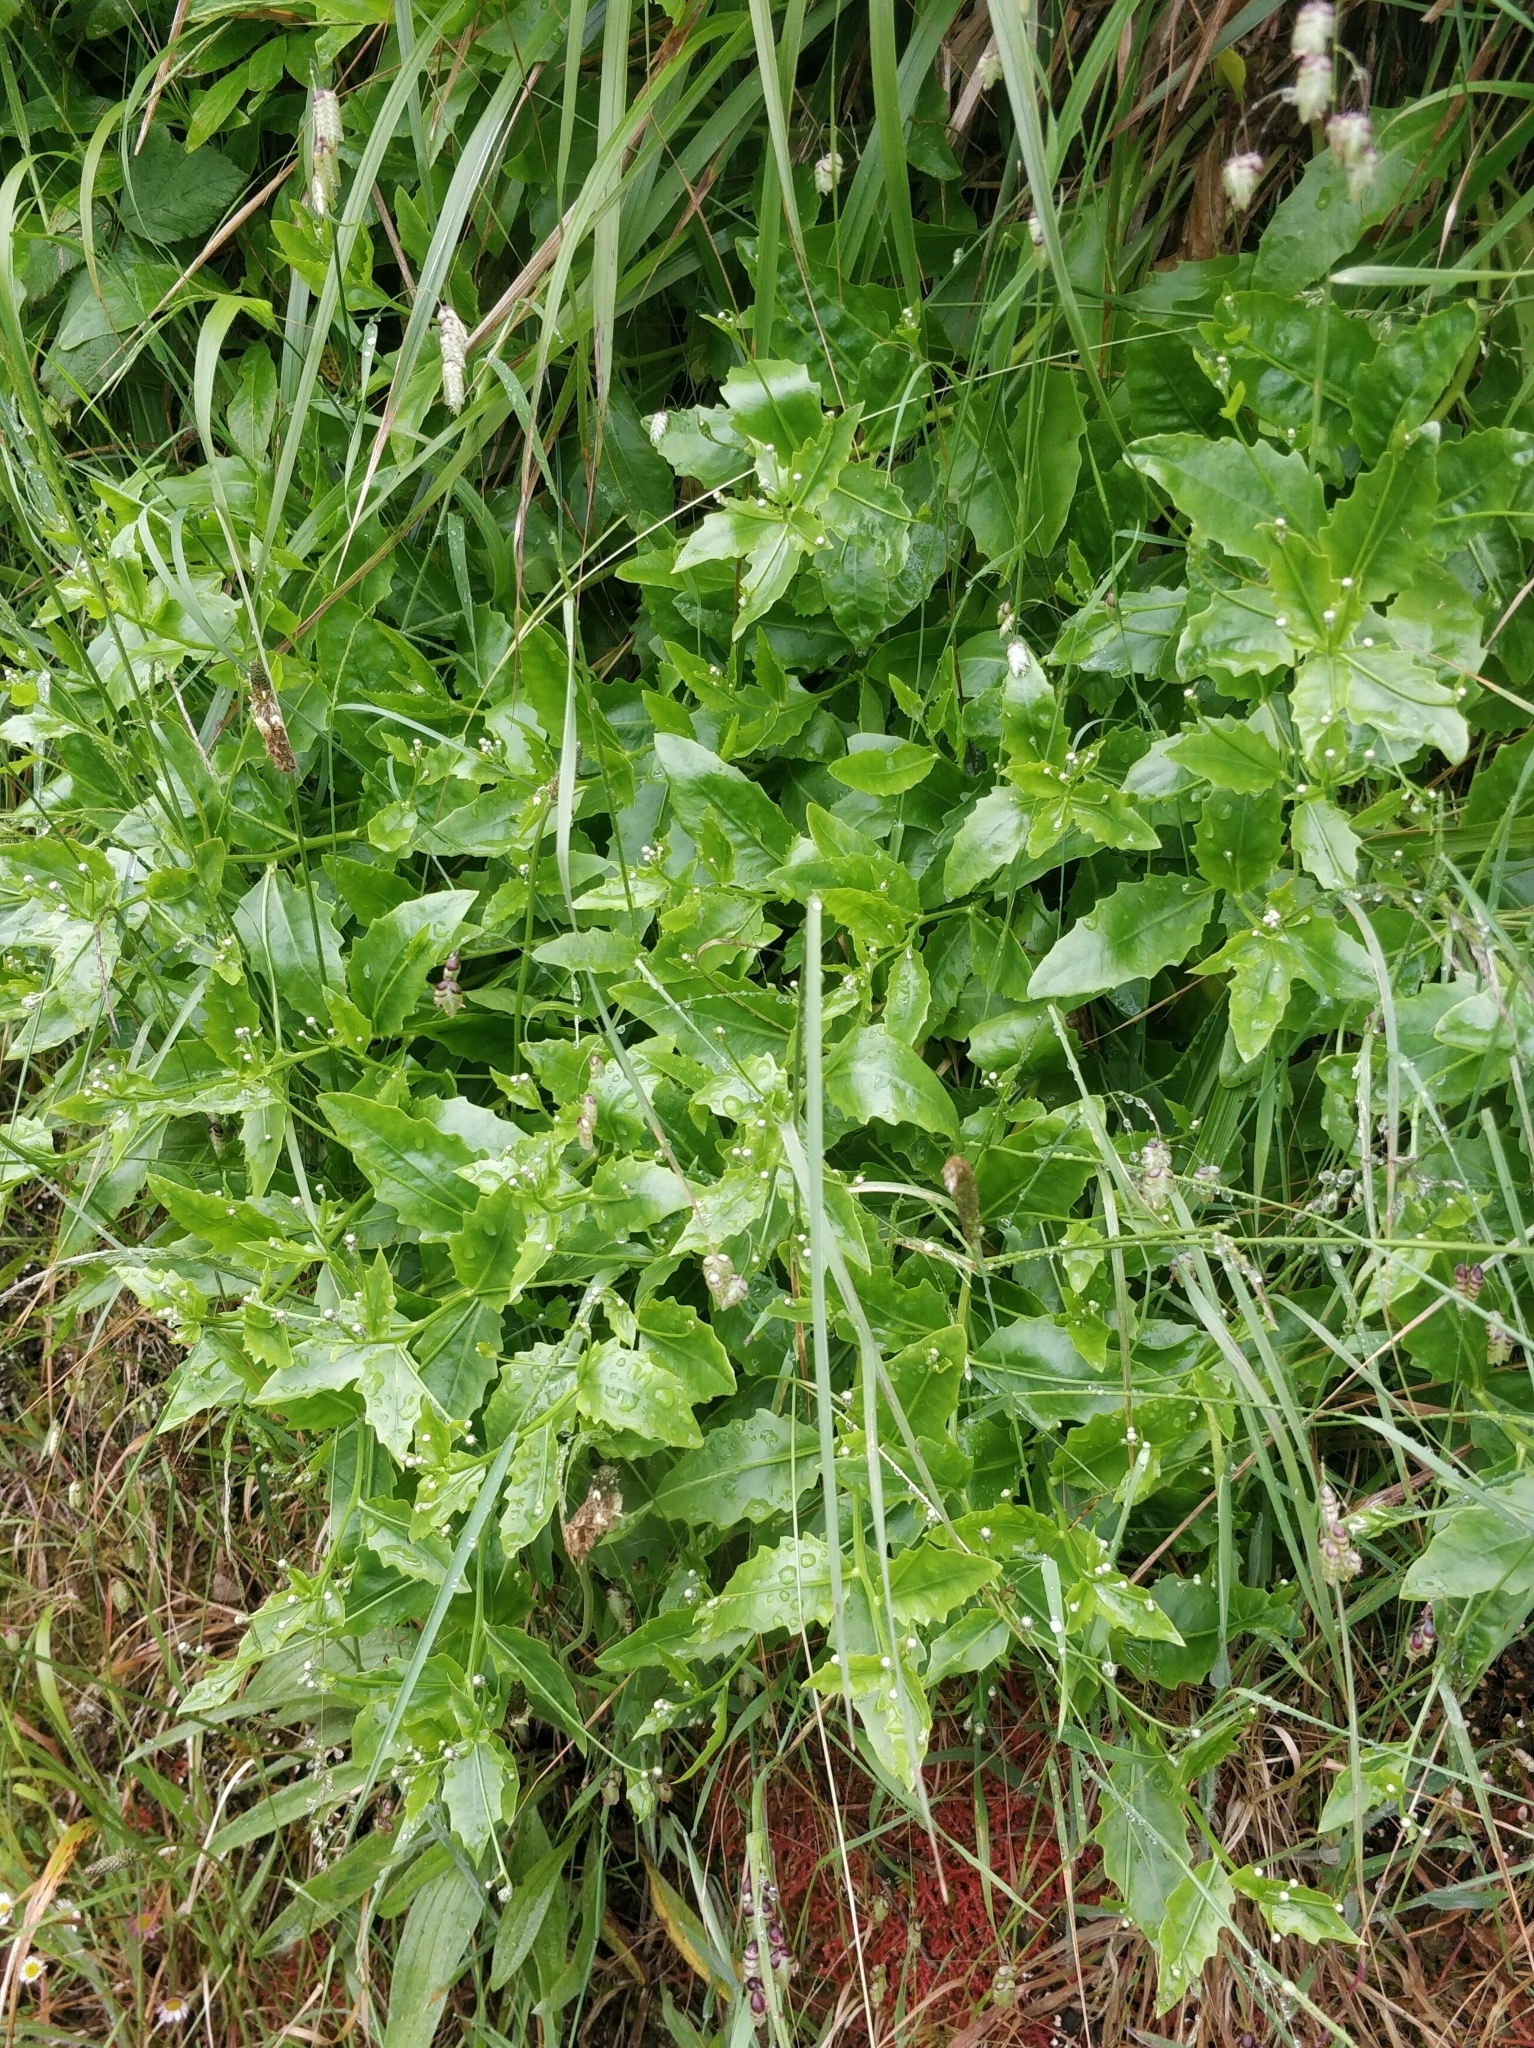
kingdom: Plantae
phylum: Tracheophyta
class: Magnoliopsida
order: Asterales
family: Asteraceae
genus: Tolpis
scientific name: Tolpis macrorhiza
